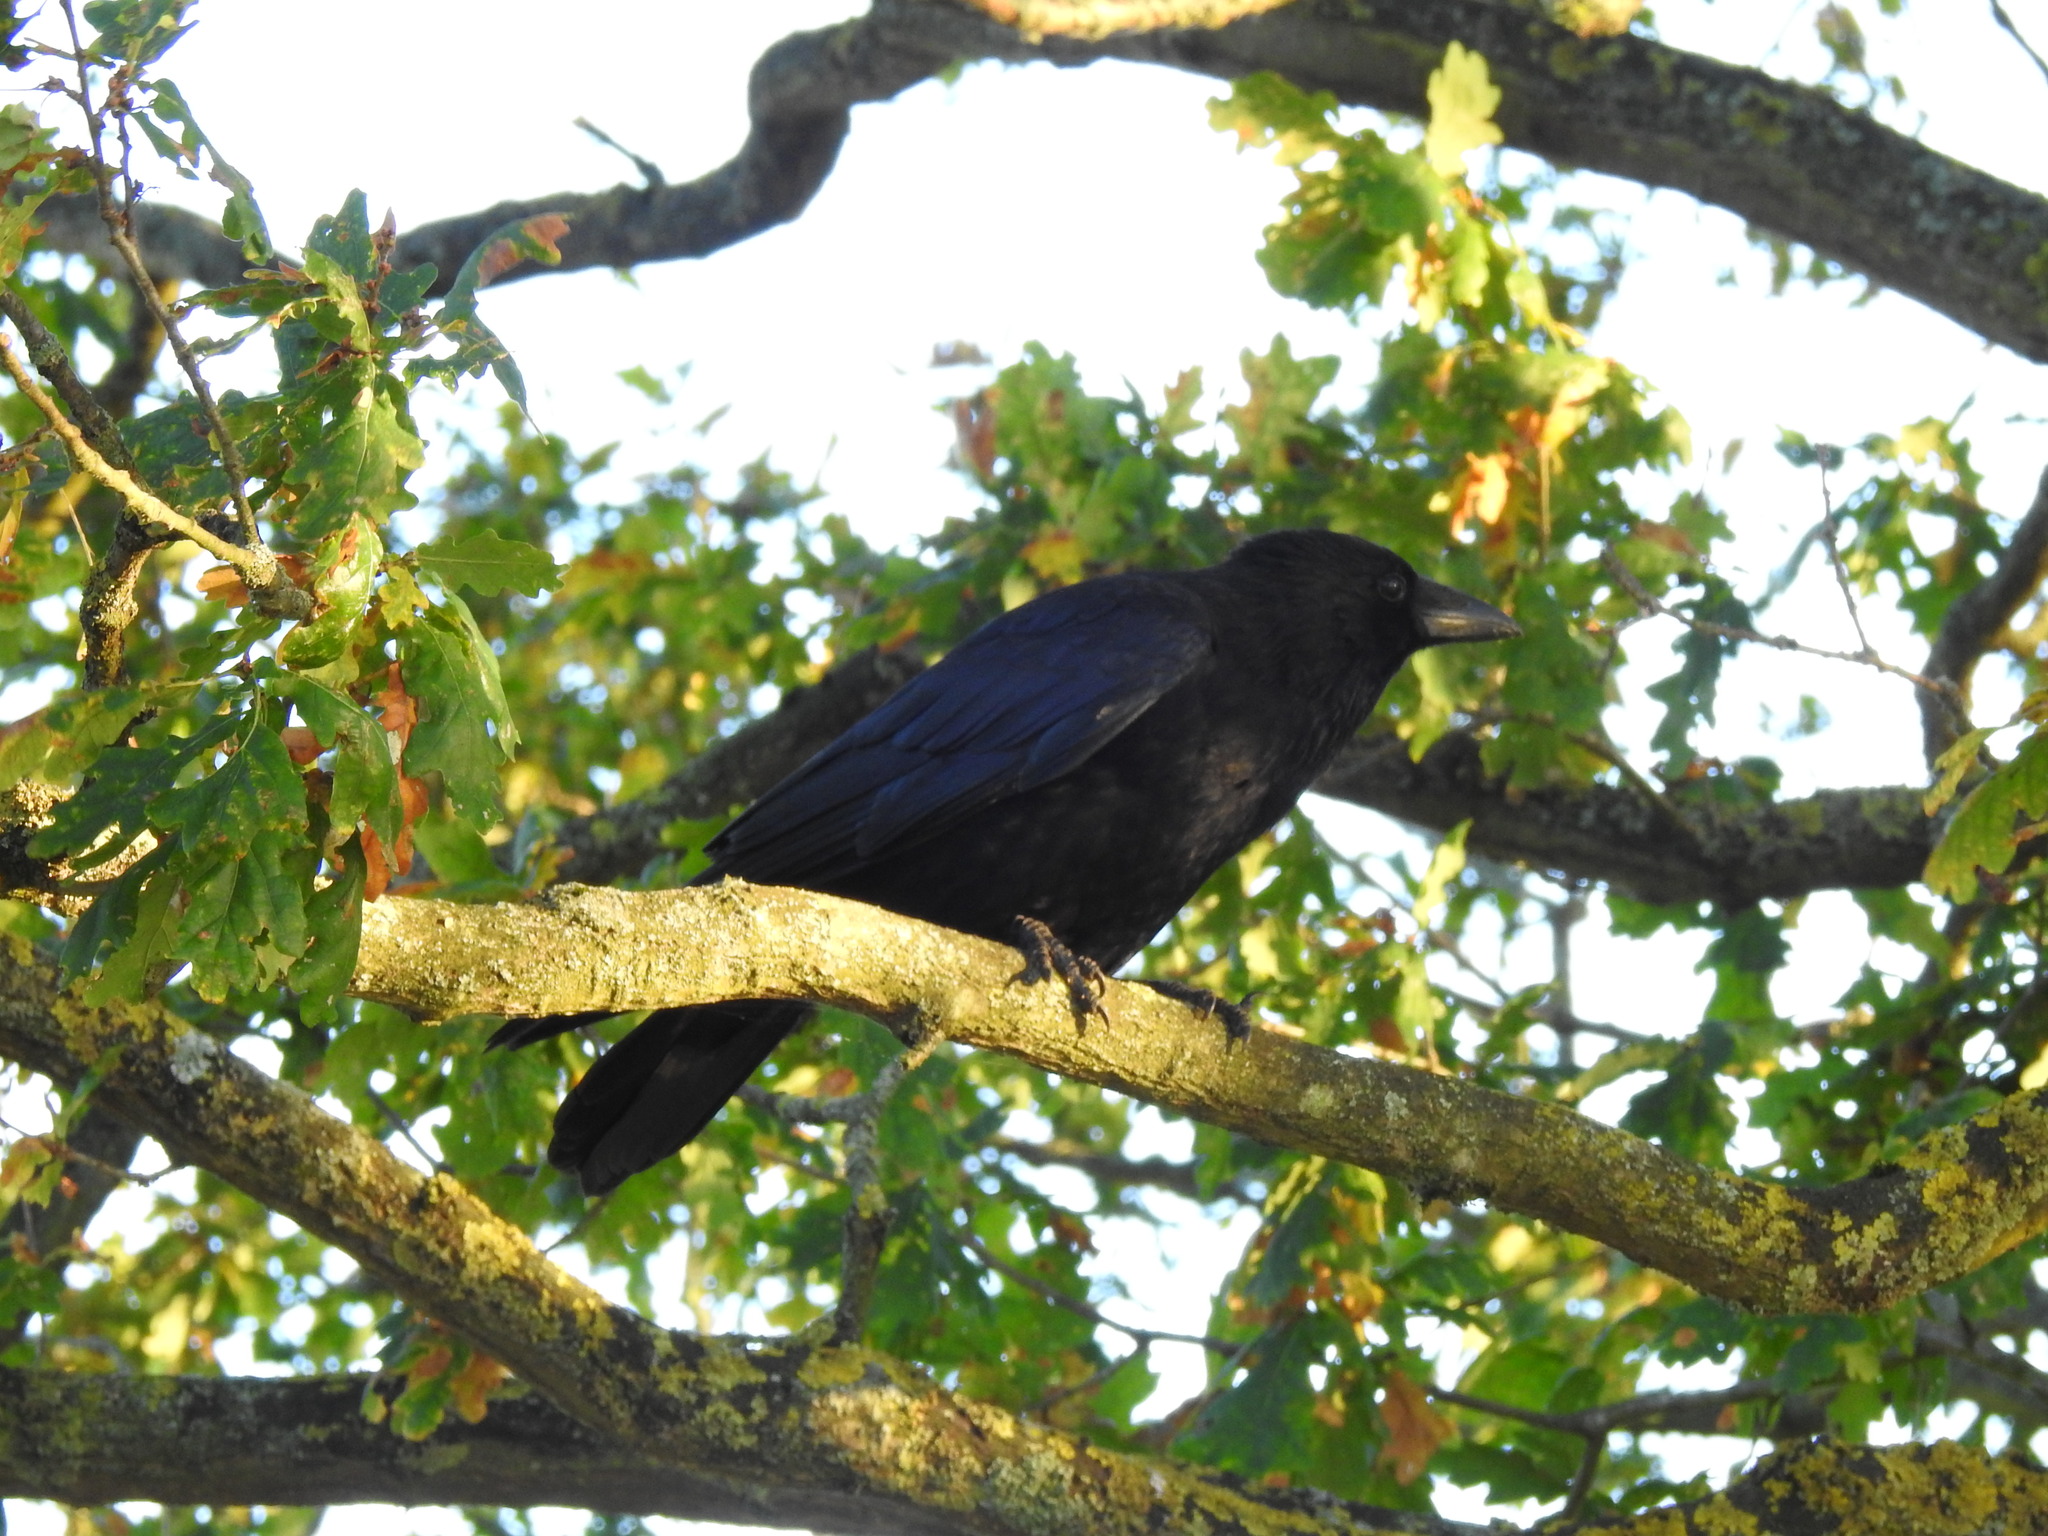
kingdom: Animalia
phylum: Chordata
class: Aves
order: Passeriformes
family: Corvidae
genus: Corvus
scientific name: Corvus corone
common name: Carrion crow
